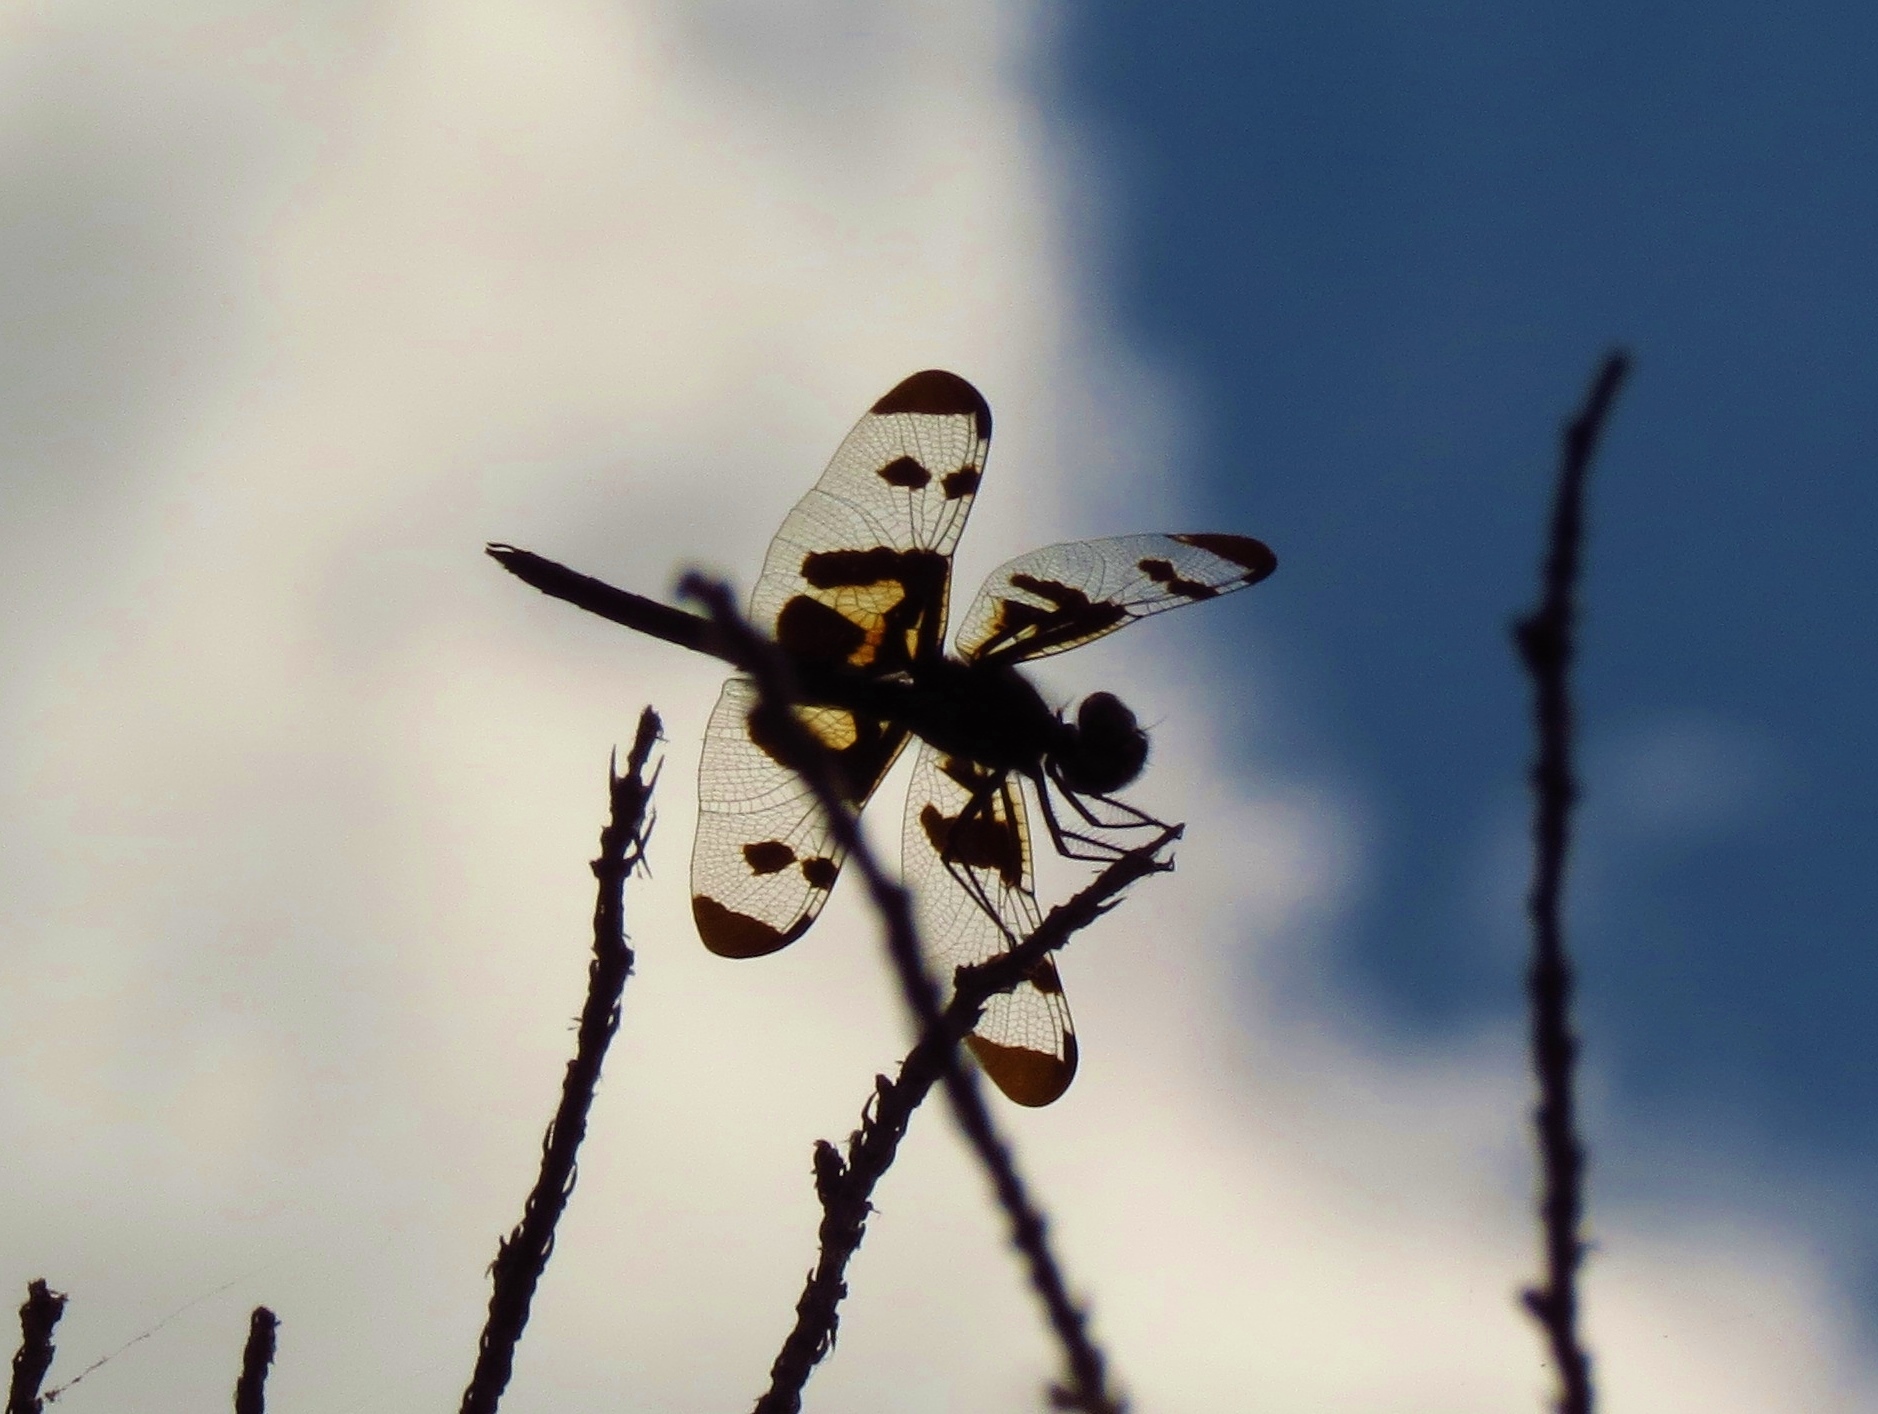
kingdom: Animalia
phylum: Arthropoda
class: Insecta
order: Odonata
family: Libellulidae
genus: Celithemis
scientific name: Celithemis fasciata
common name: Banded pennant
